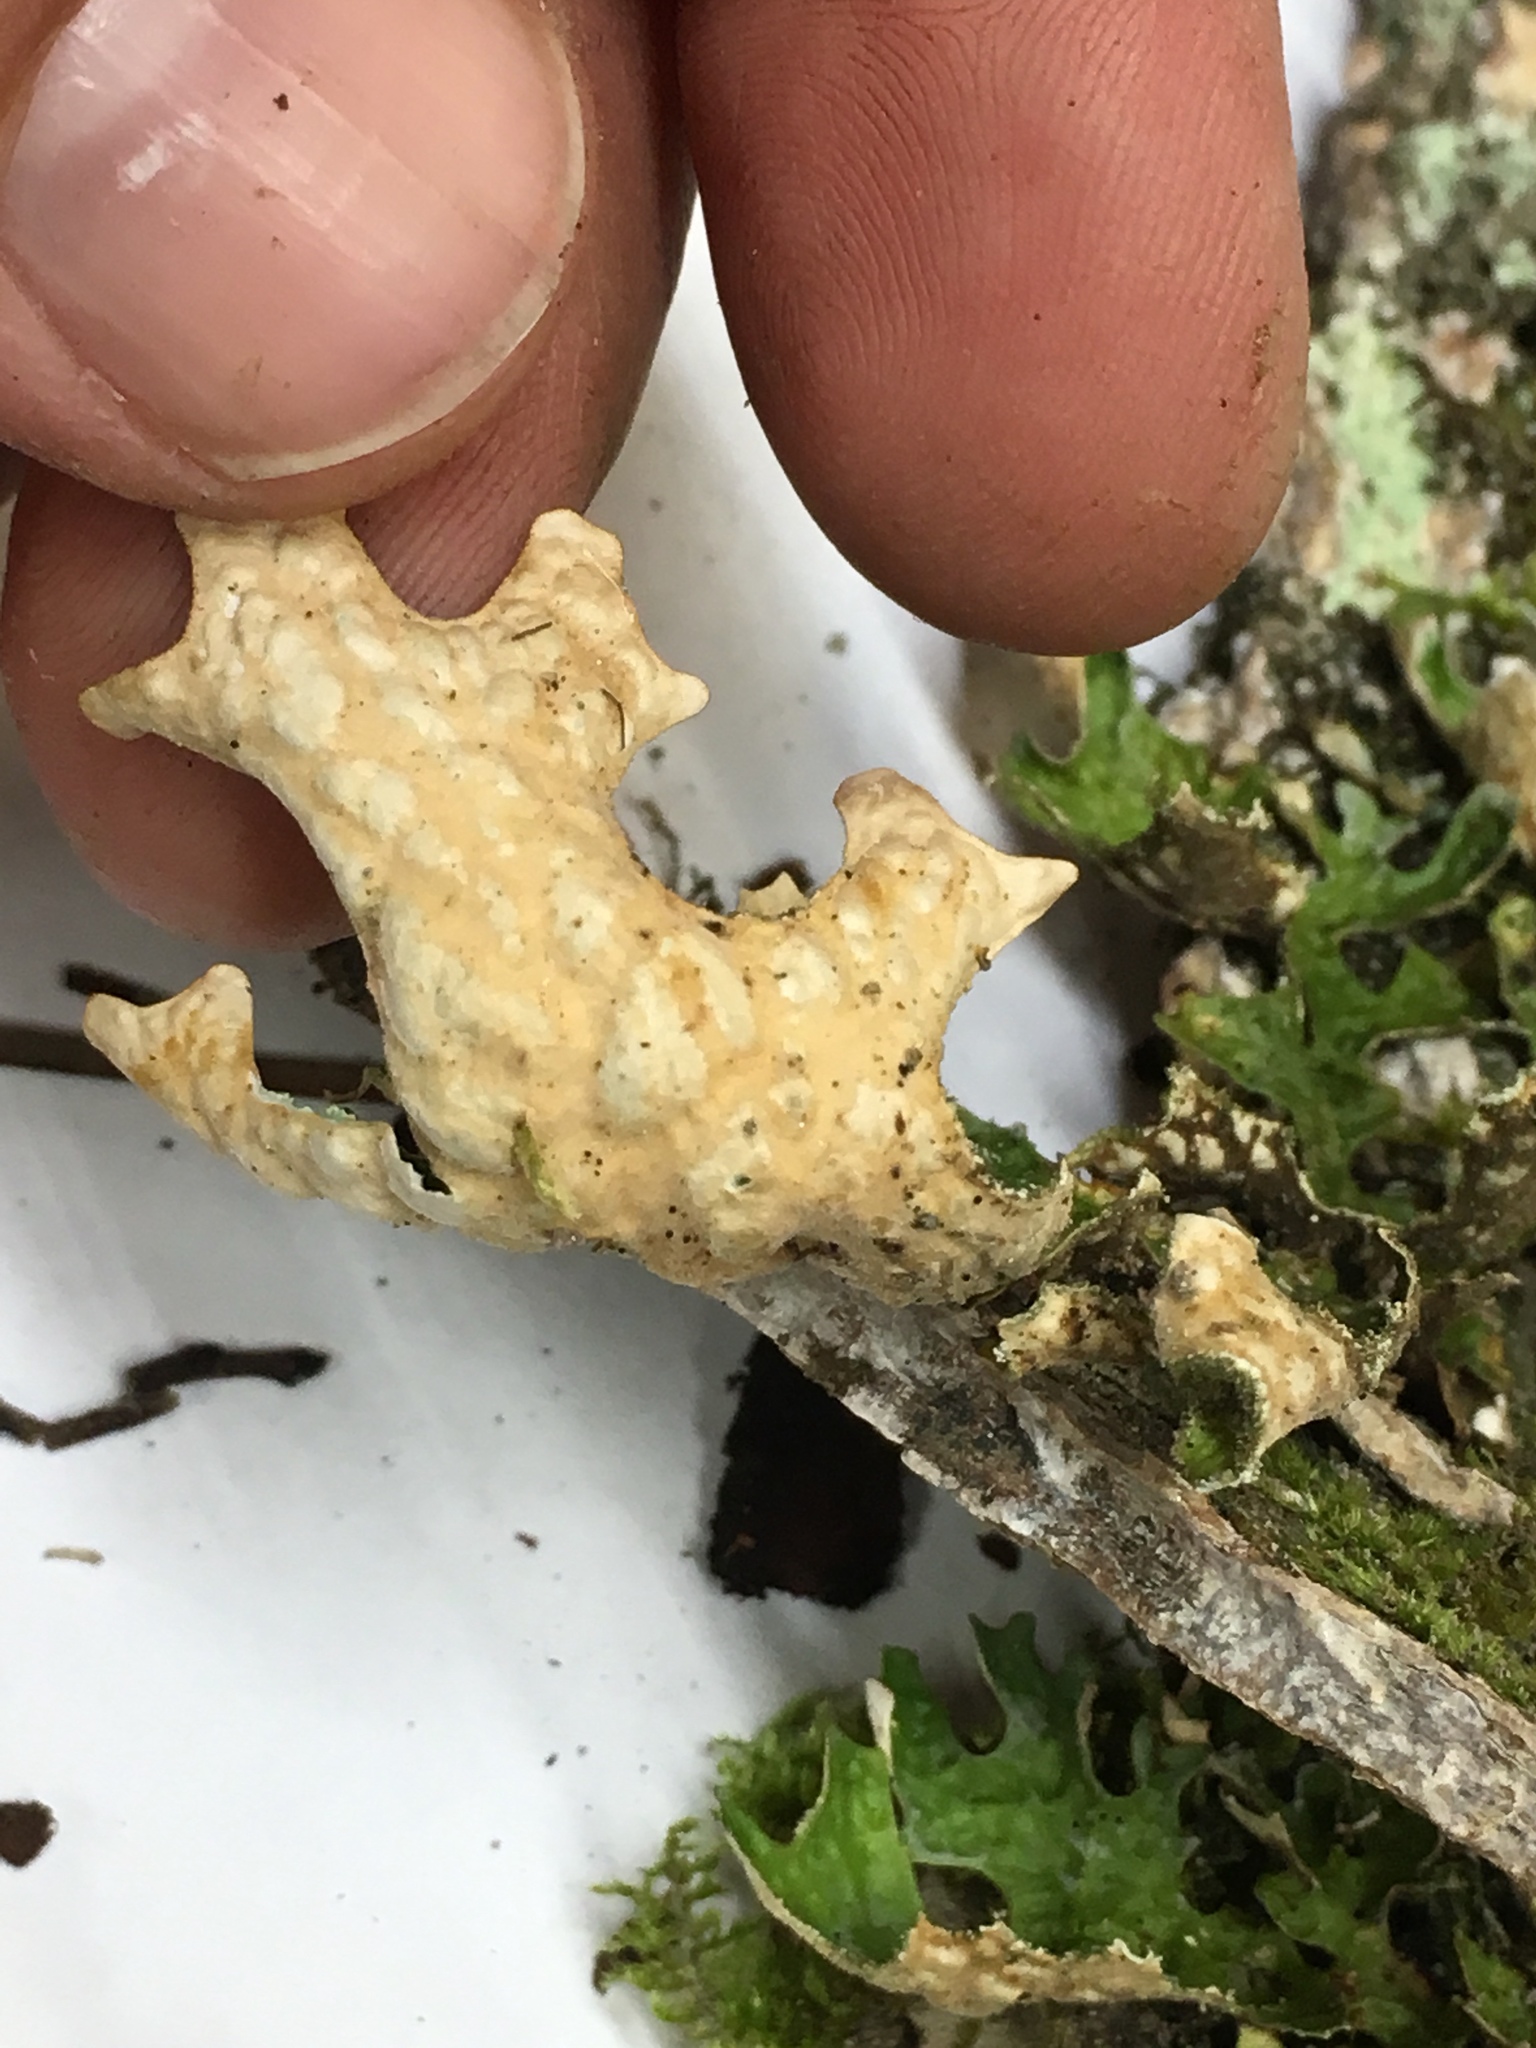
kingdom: Fungi
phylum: Ascomycota
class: Lecanoromycetes
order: Peltigerales
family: Lobariaceae
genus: Lobaria
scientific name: Lobaria pulmonaria
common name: Lungwort
